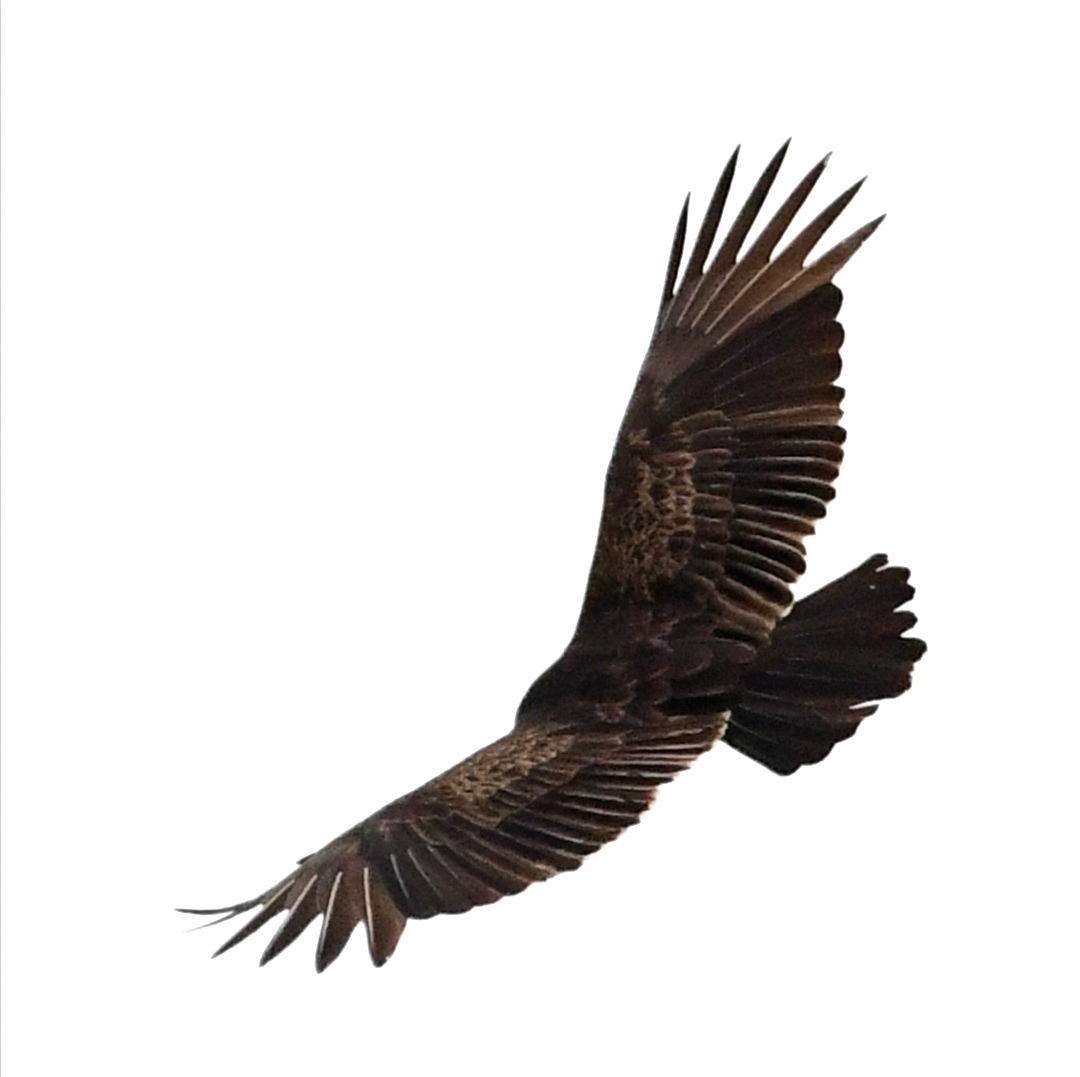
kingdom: Animalia
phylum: Chordata
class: Aves
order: Accipitriformes
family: Cathartidae
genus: Cathartes
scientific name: Cathartes aura
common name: Turkey vulture
